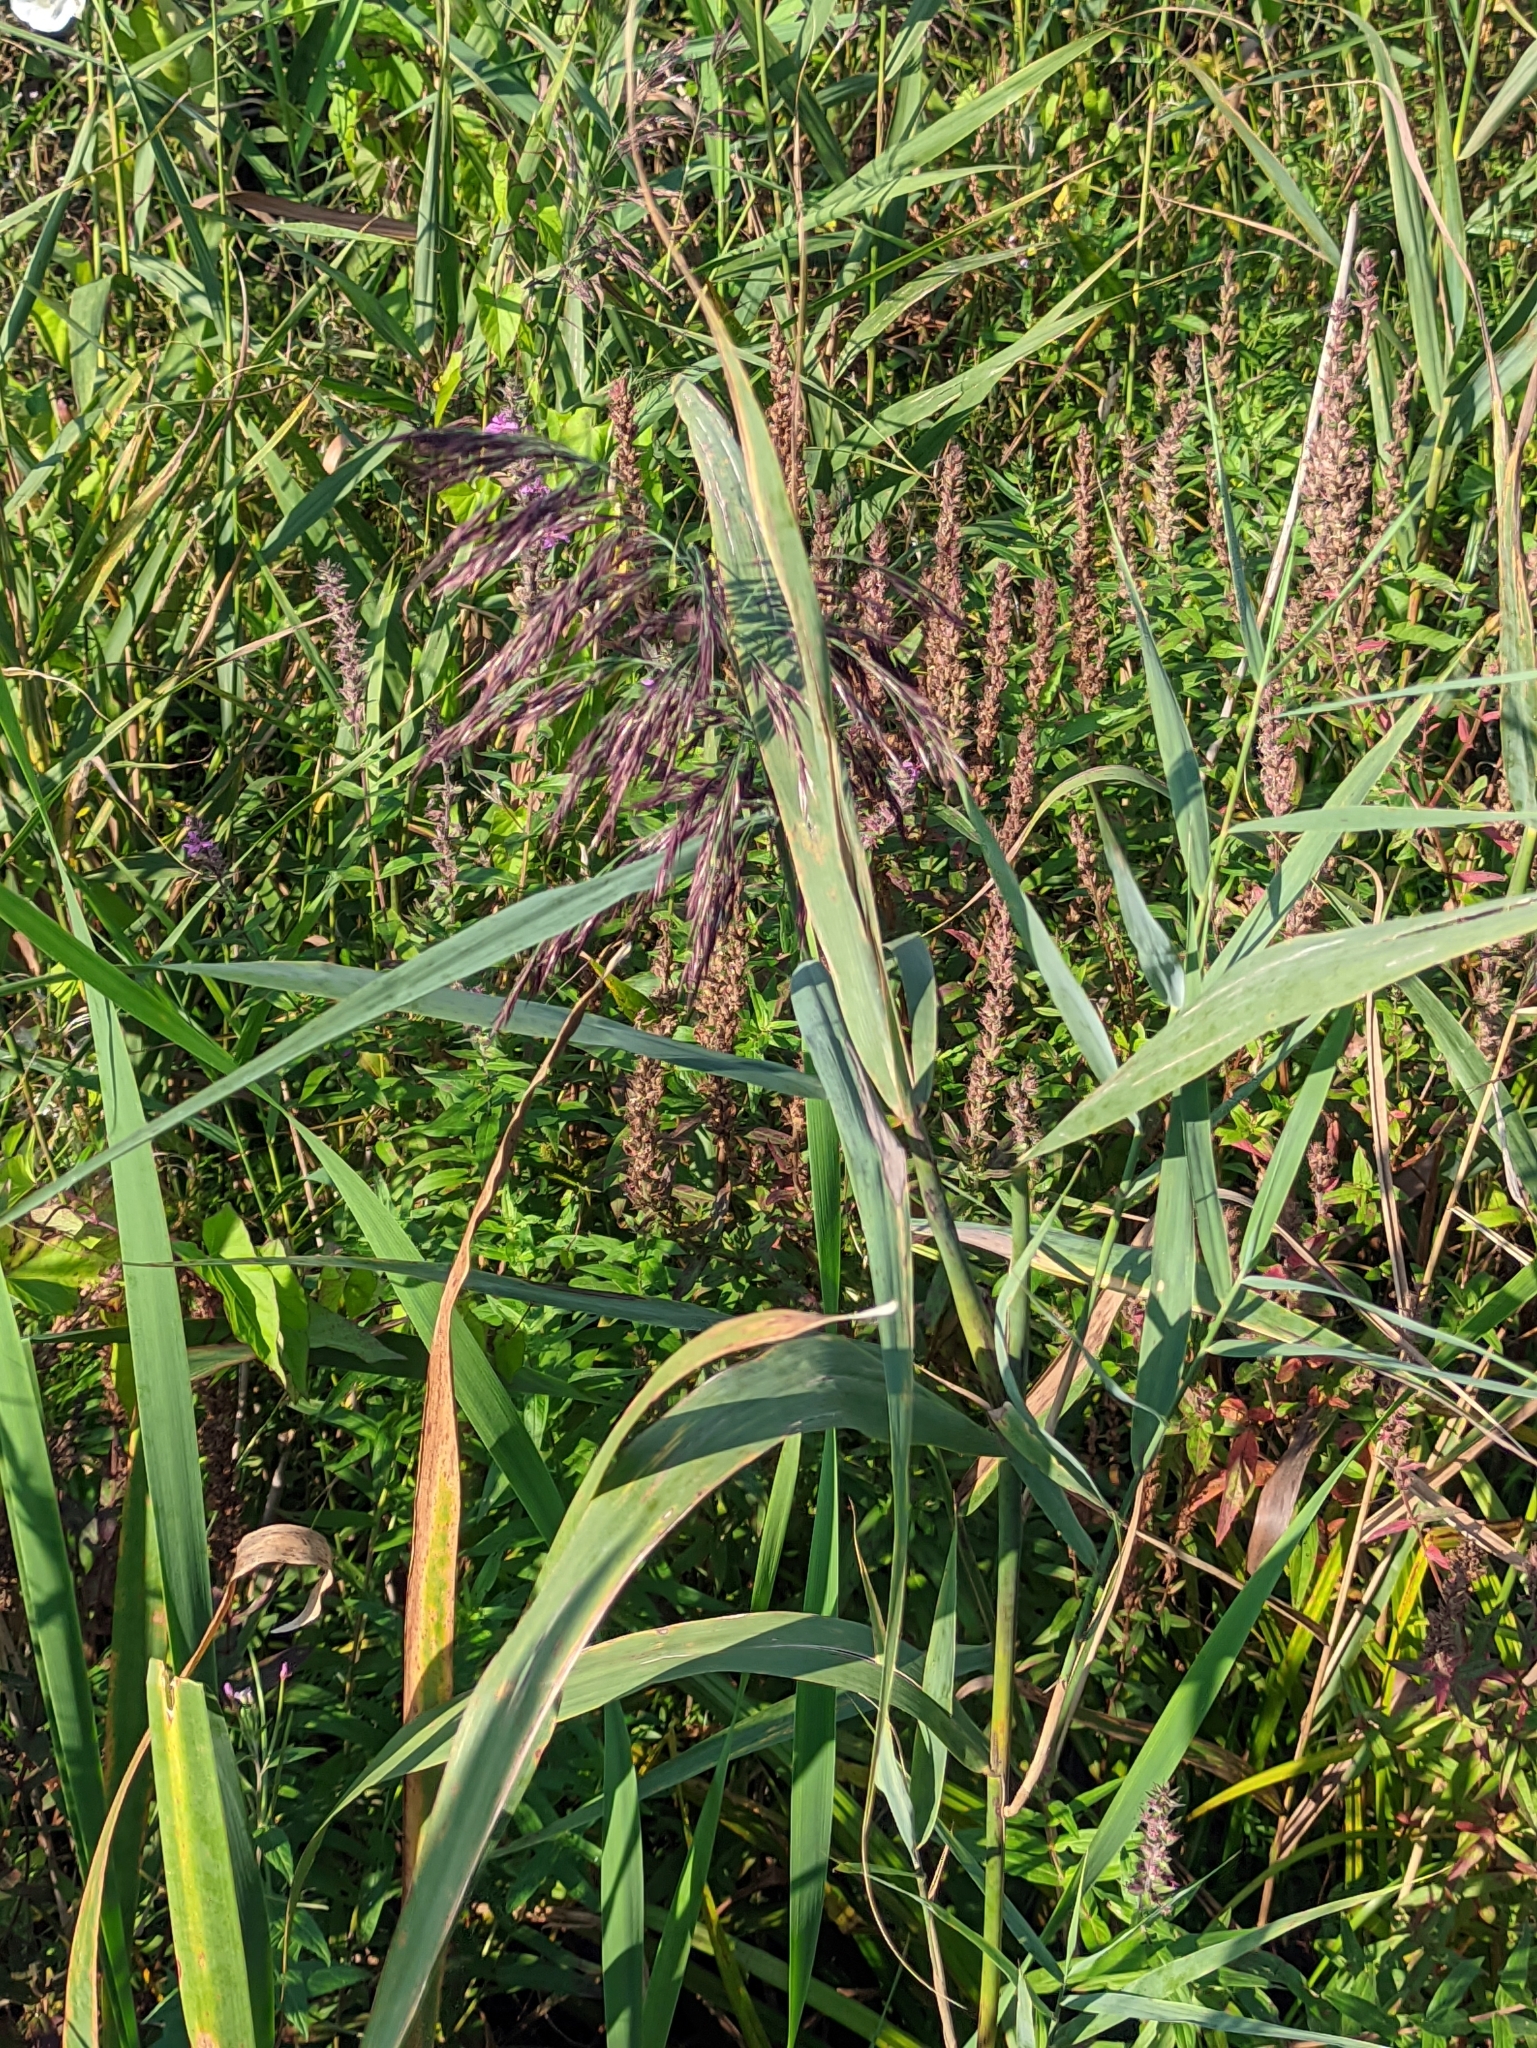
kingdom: Plantae
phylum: Tracheophyta
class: Liliopsida
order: Poales
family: Poaceae
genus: Phragmites
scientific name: Phragmites australis
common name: Common reed
